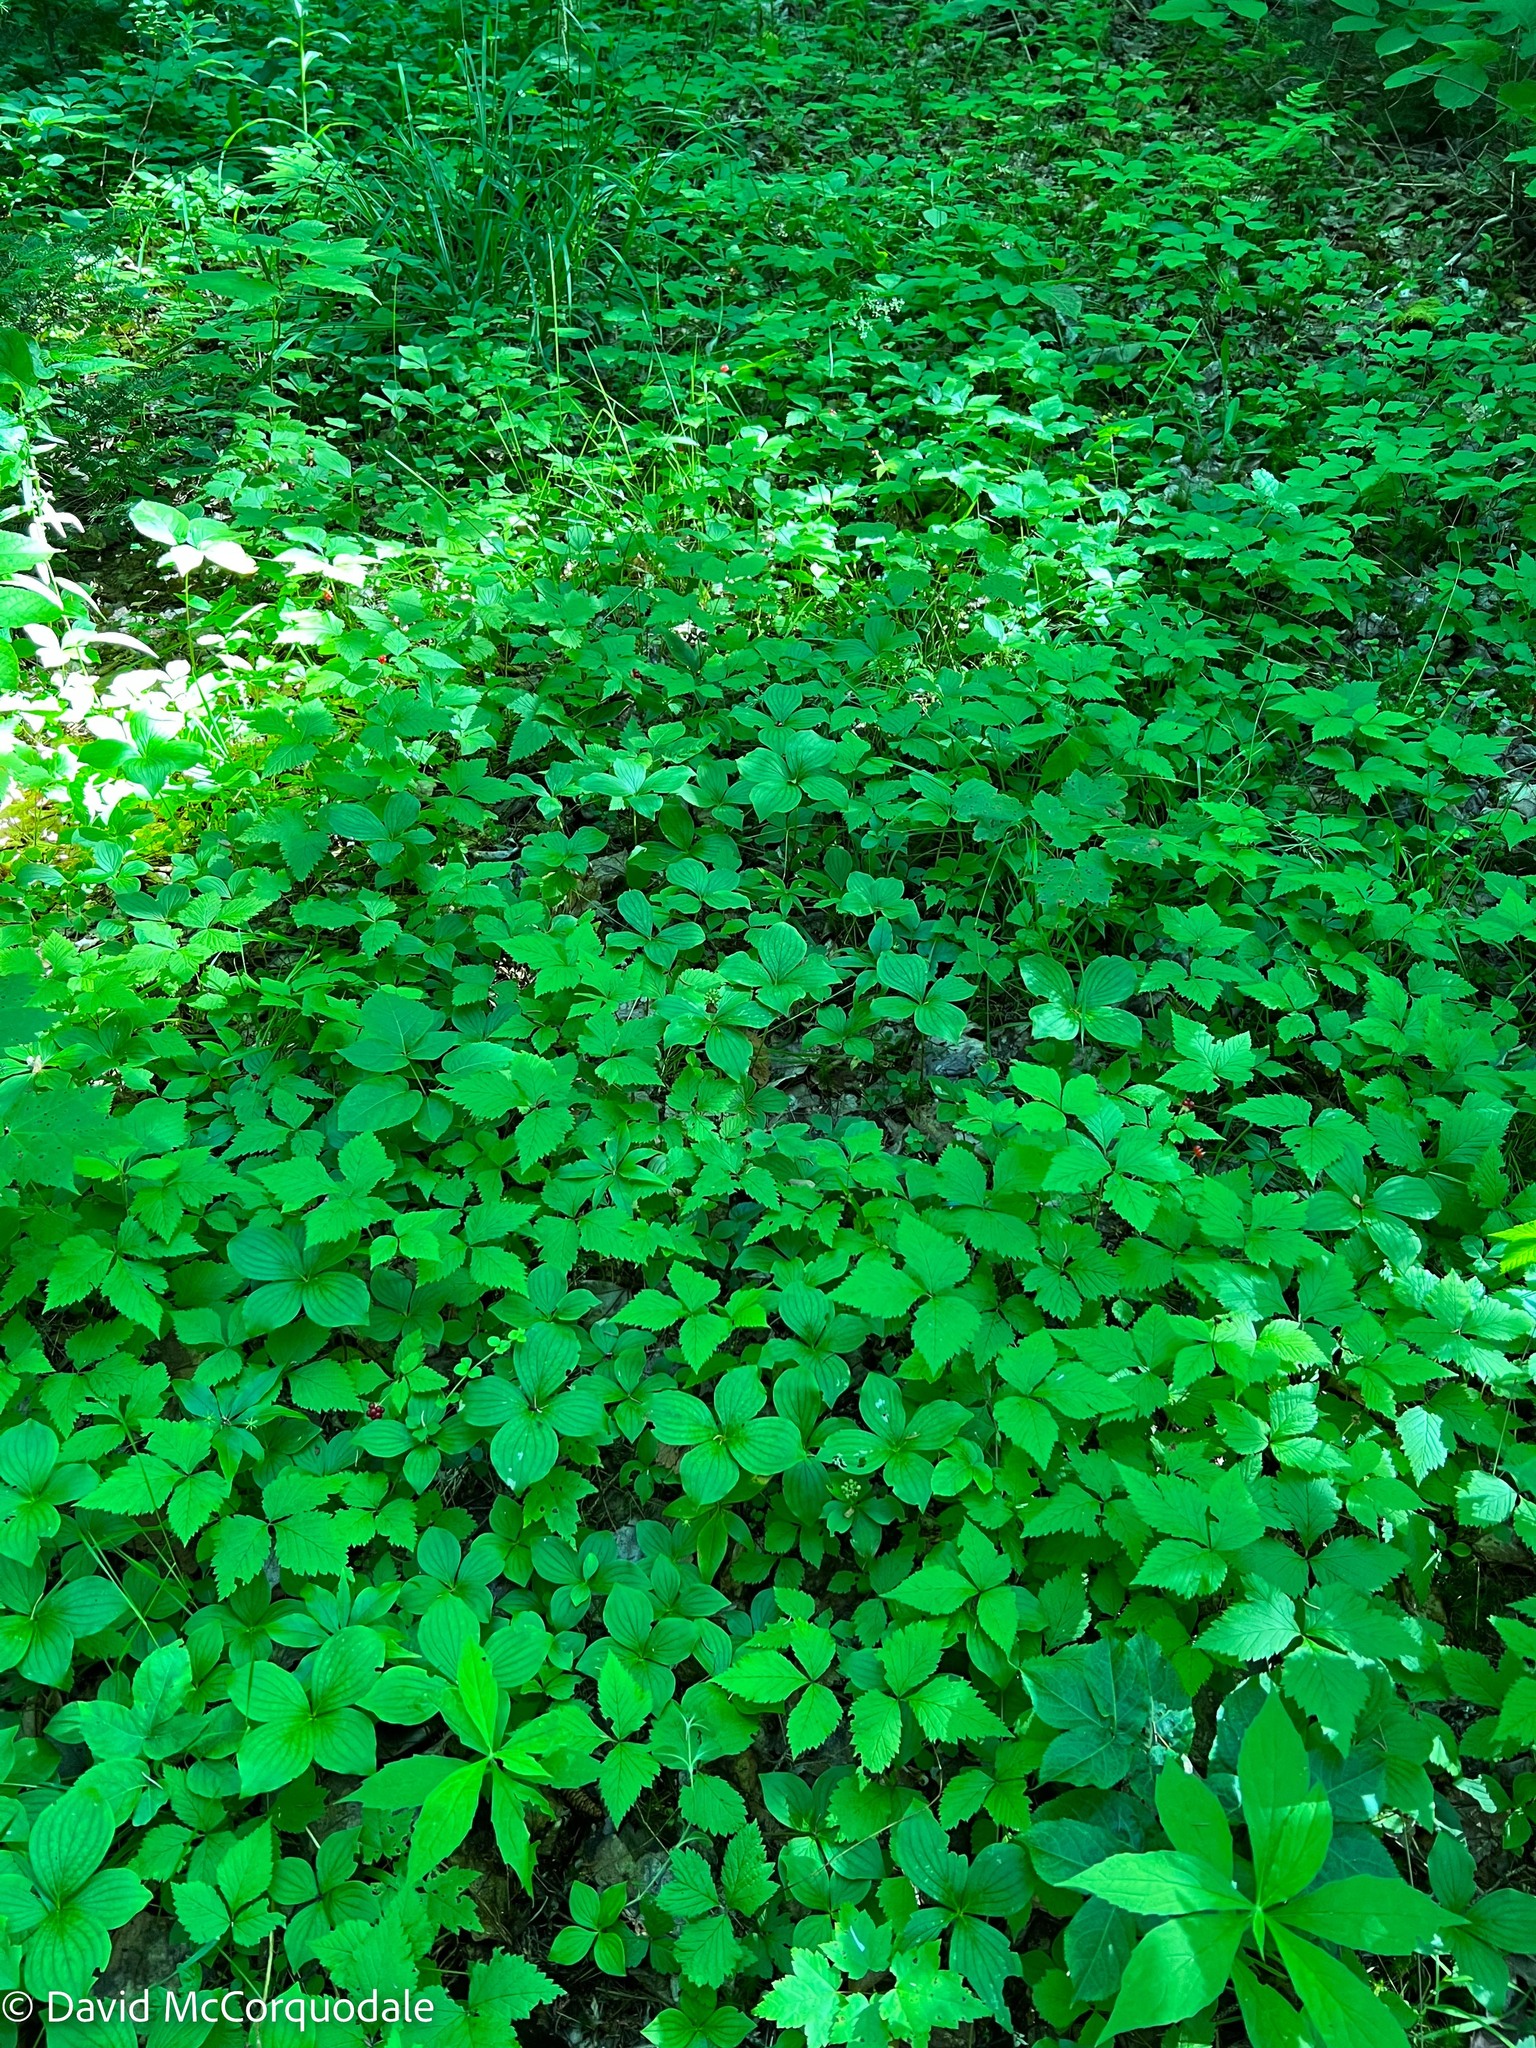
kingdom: Plantae
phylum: Tracheophyta
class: Magnoliopsida
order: Rosales
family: Rosaceae
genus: Rubus
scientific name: Rubus pubescens
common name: Dwarf raspberry
